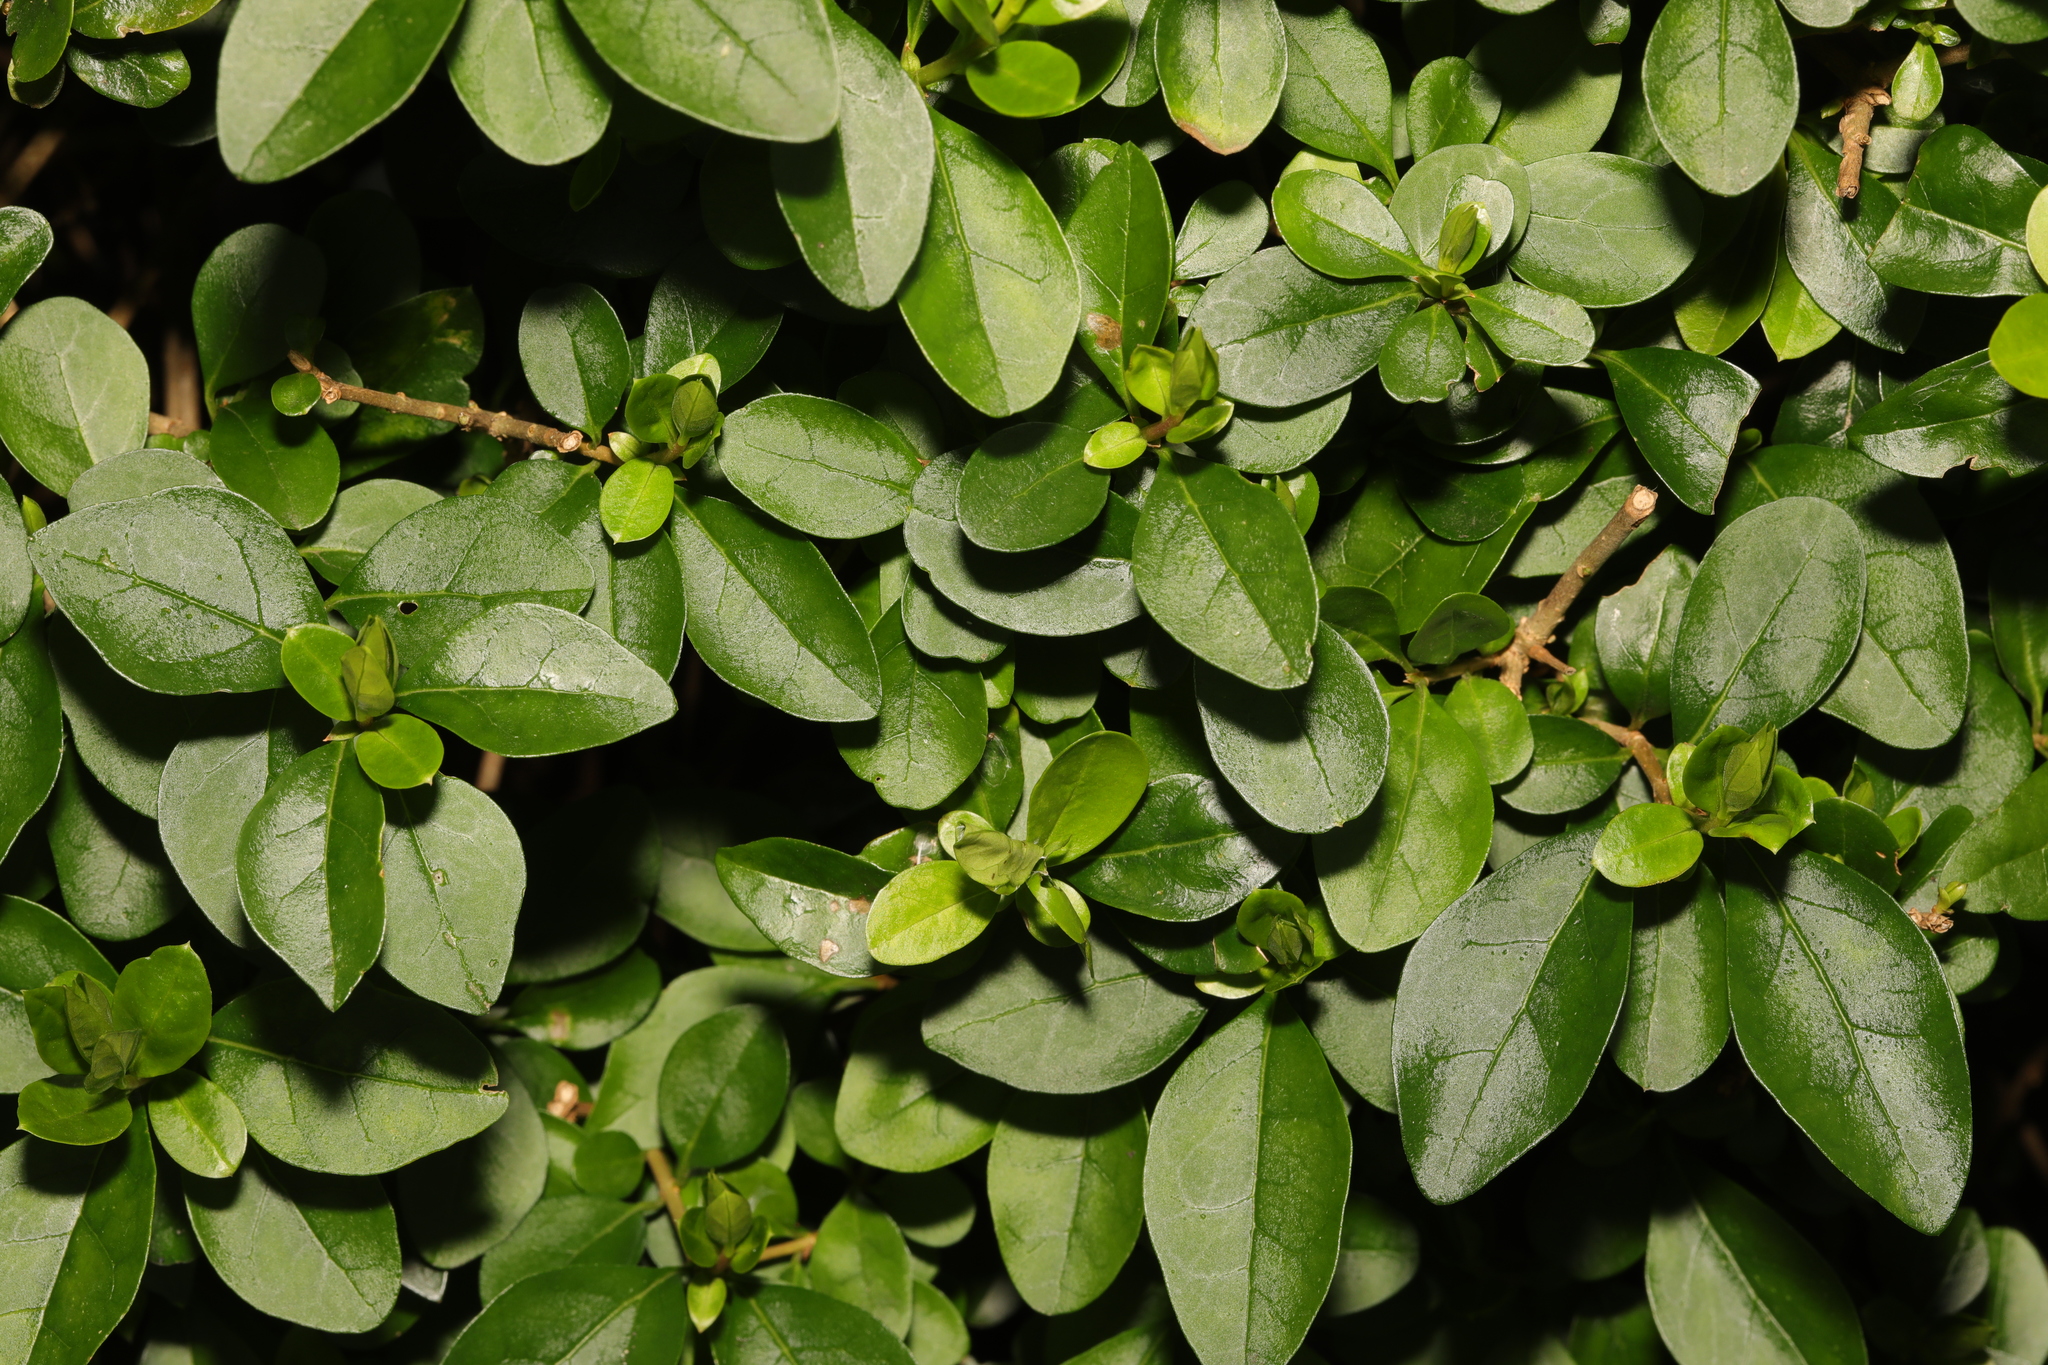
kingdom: Plantae
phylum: Tracheophyta
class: Magnoliopsida
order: Lamiales
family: Oleaceae
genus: Ligustrum
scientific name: Ligustrum ovalifolium
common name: California privet
